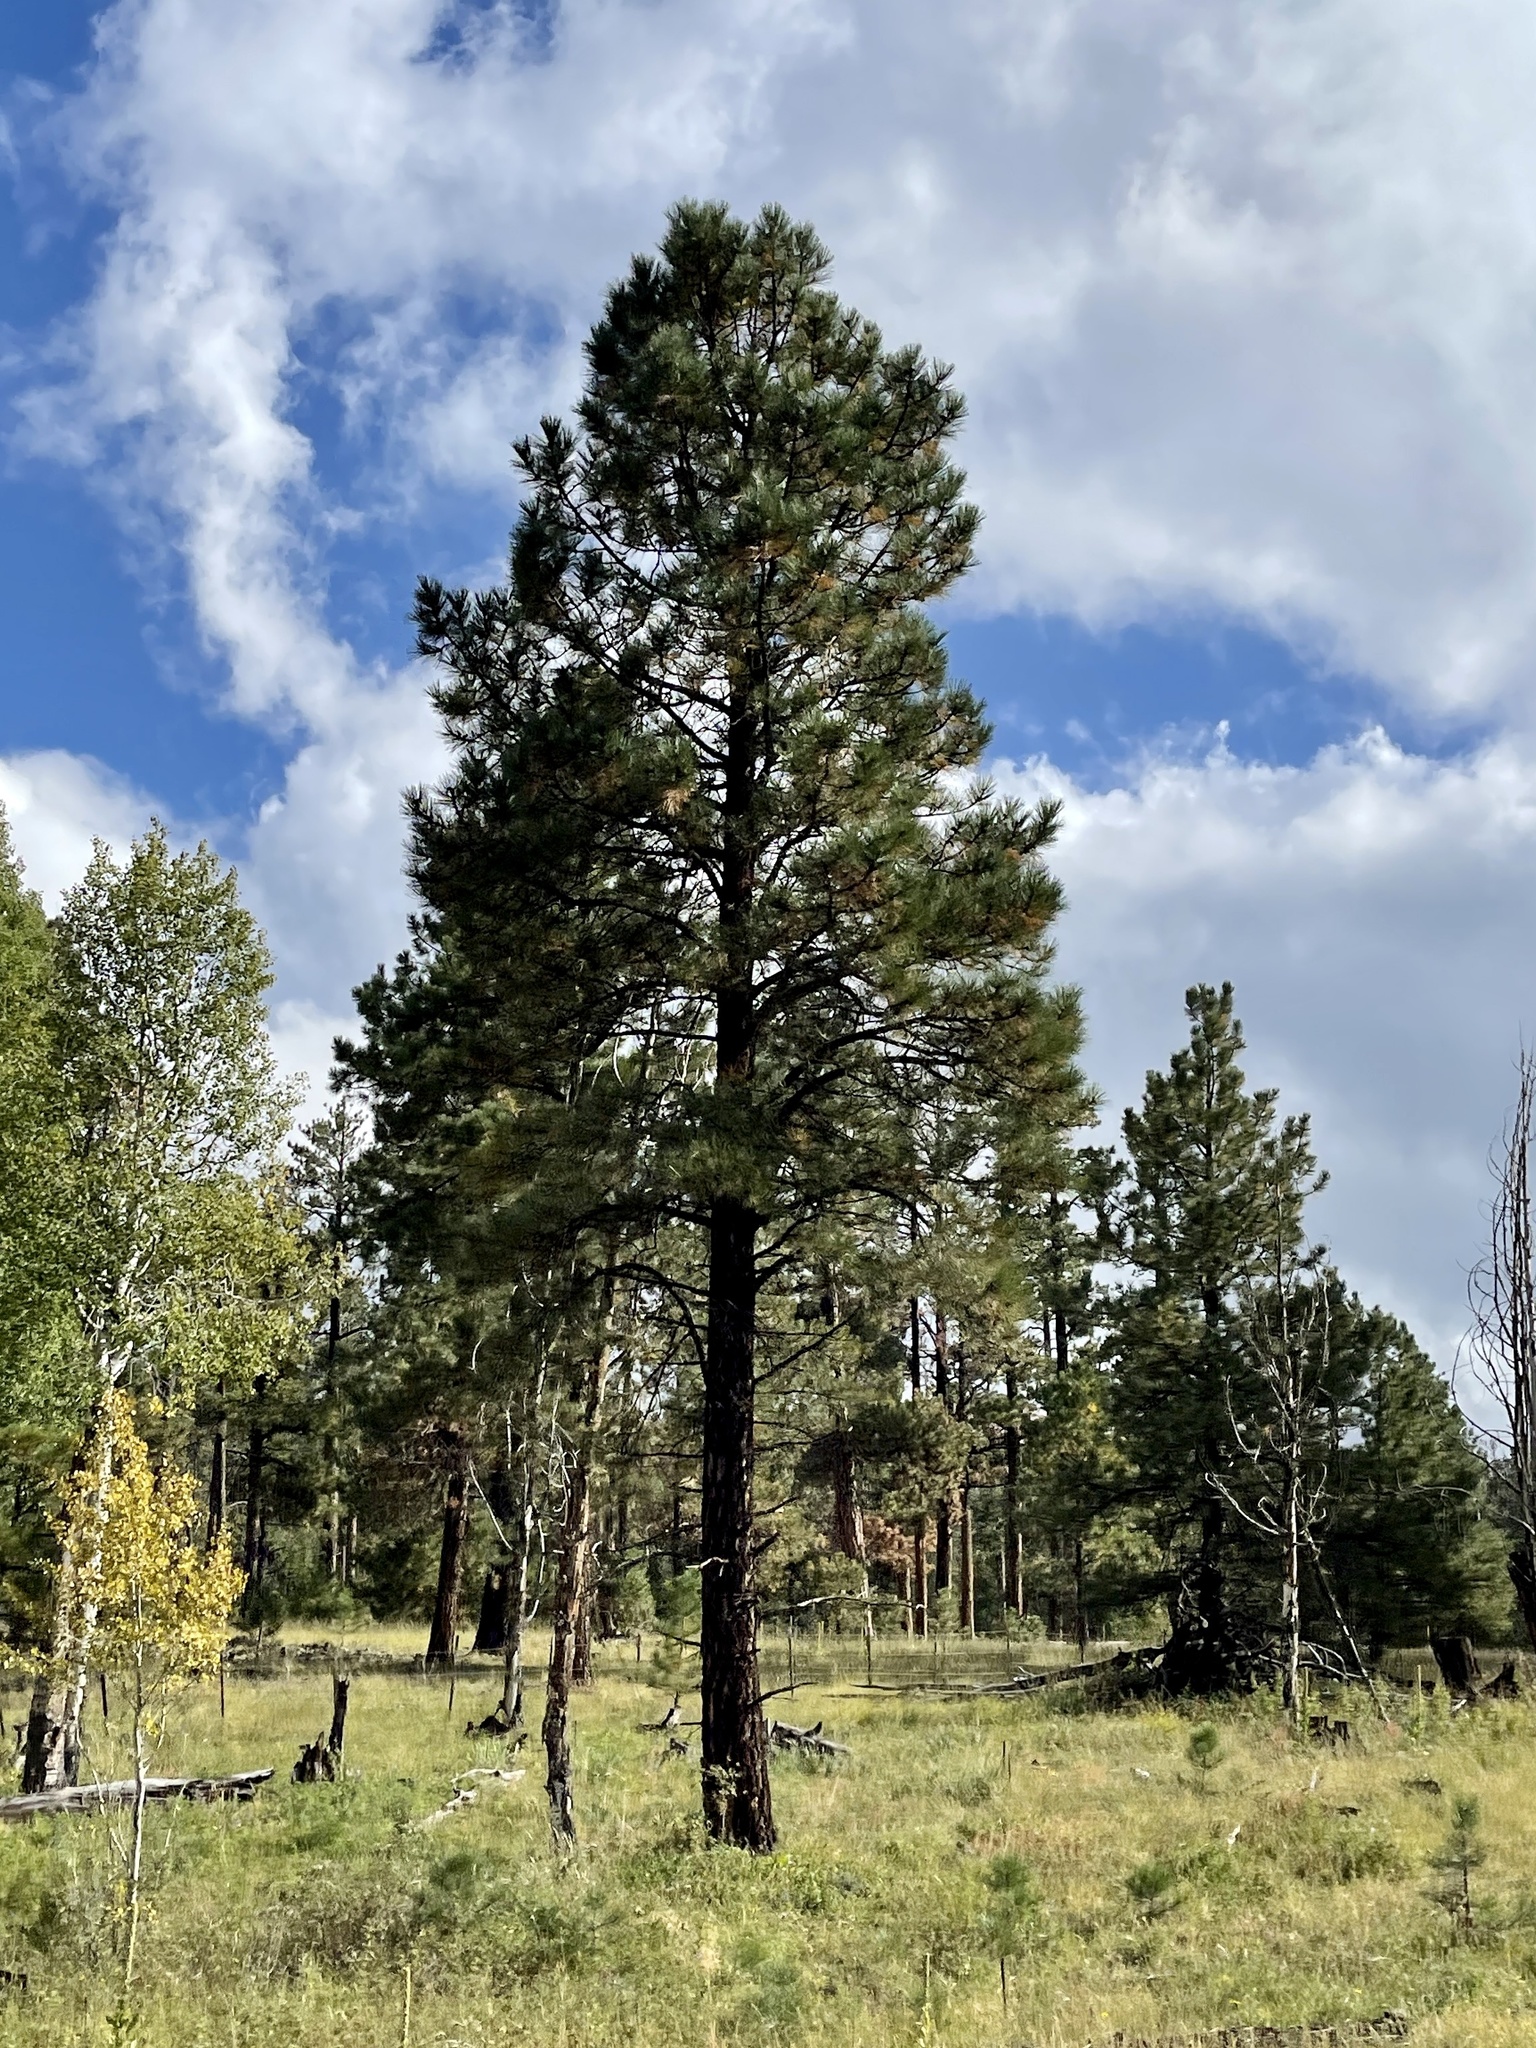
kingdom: Plantae
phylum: Tracheophyta
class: Pinopsida
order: Pinales
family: Pinaceae
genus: Pinus
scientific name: Pinus ponderosa
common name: Western yellow-pine
